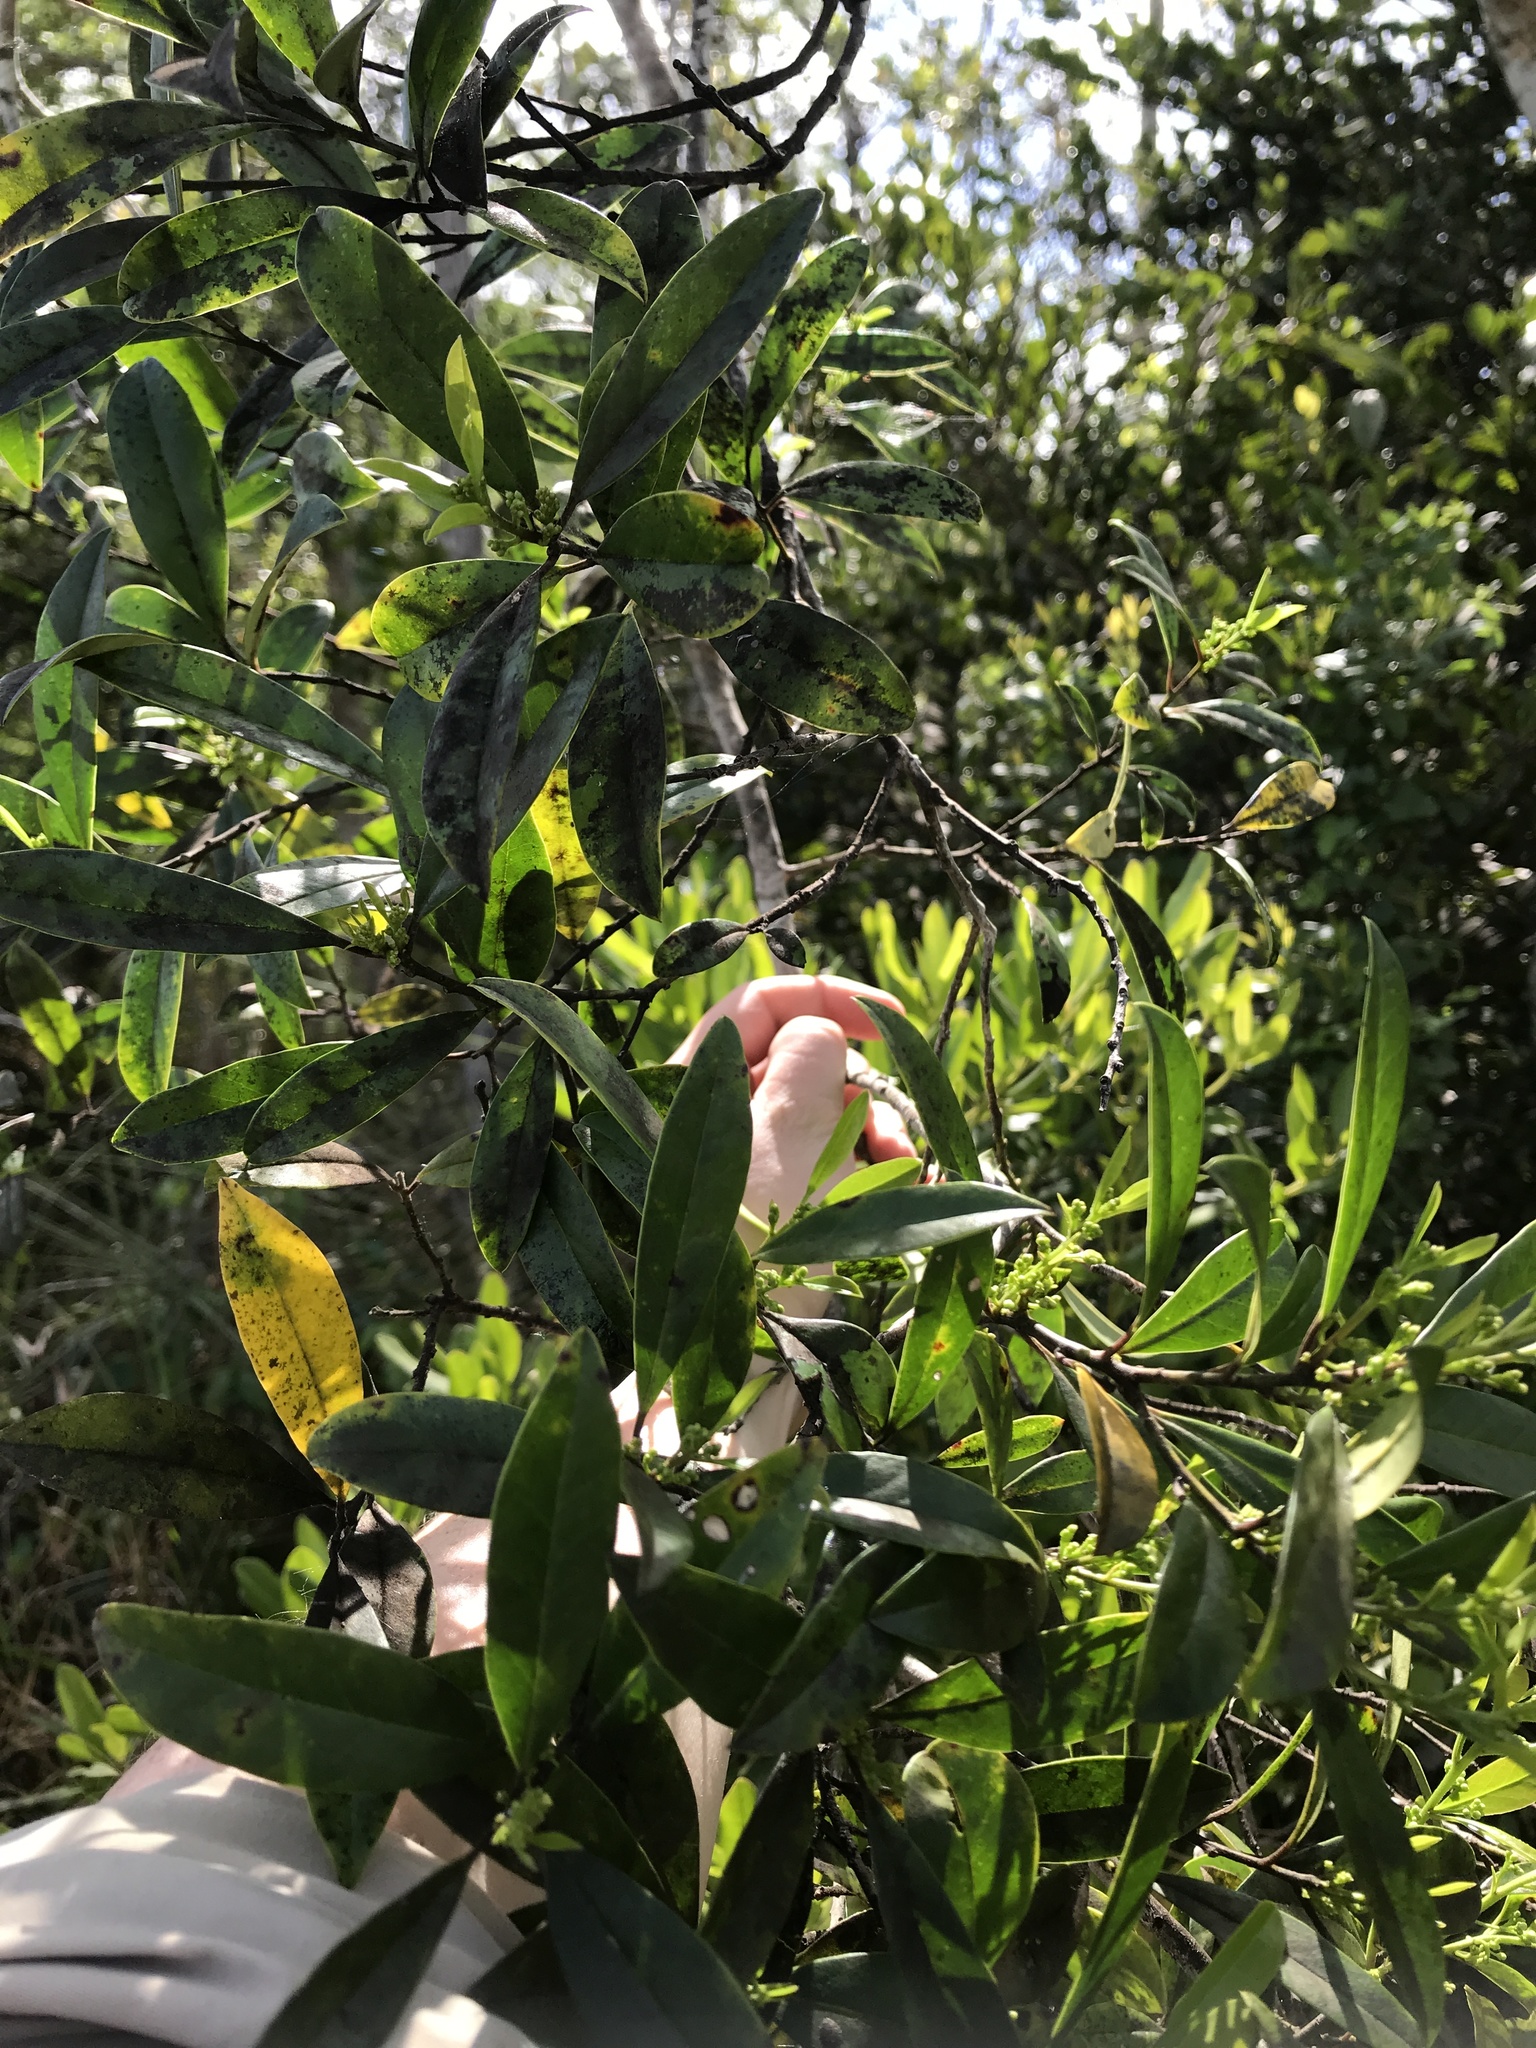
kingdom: Plantae
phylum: Tracheophyta
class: Magnoliopsida
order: Aquifoliales
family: Aquifoliaceae
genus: Ilex
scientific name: Ilex cassine
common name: Dahoon
